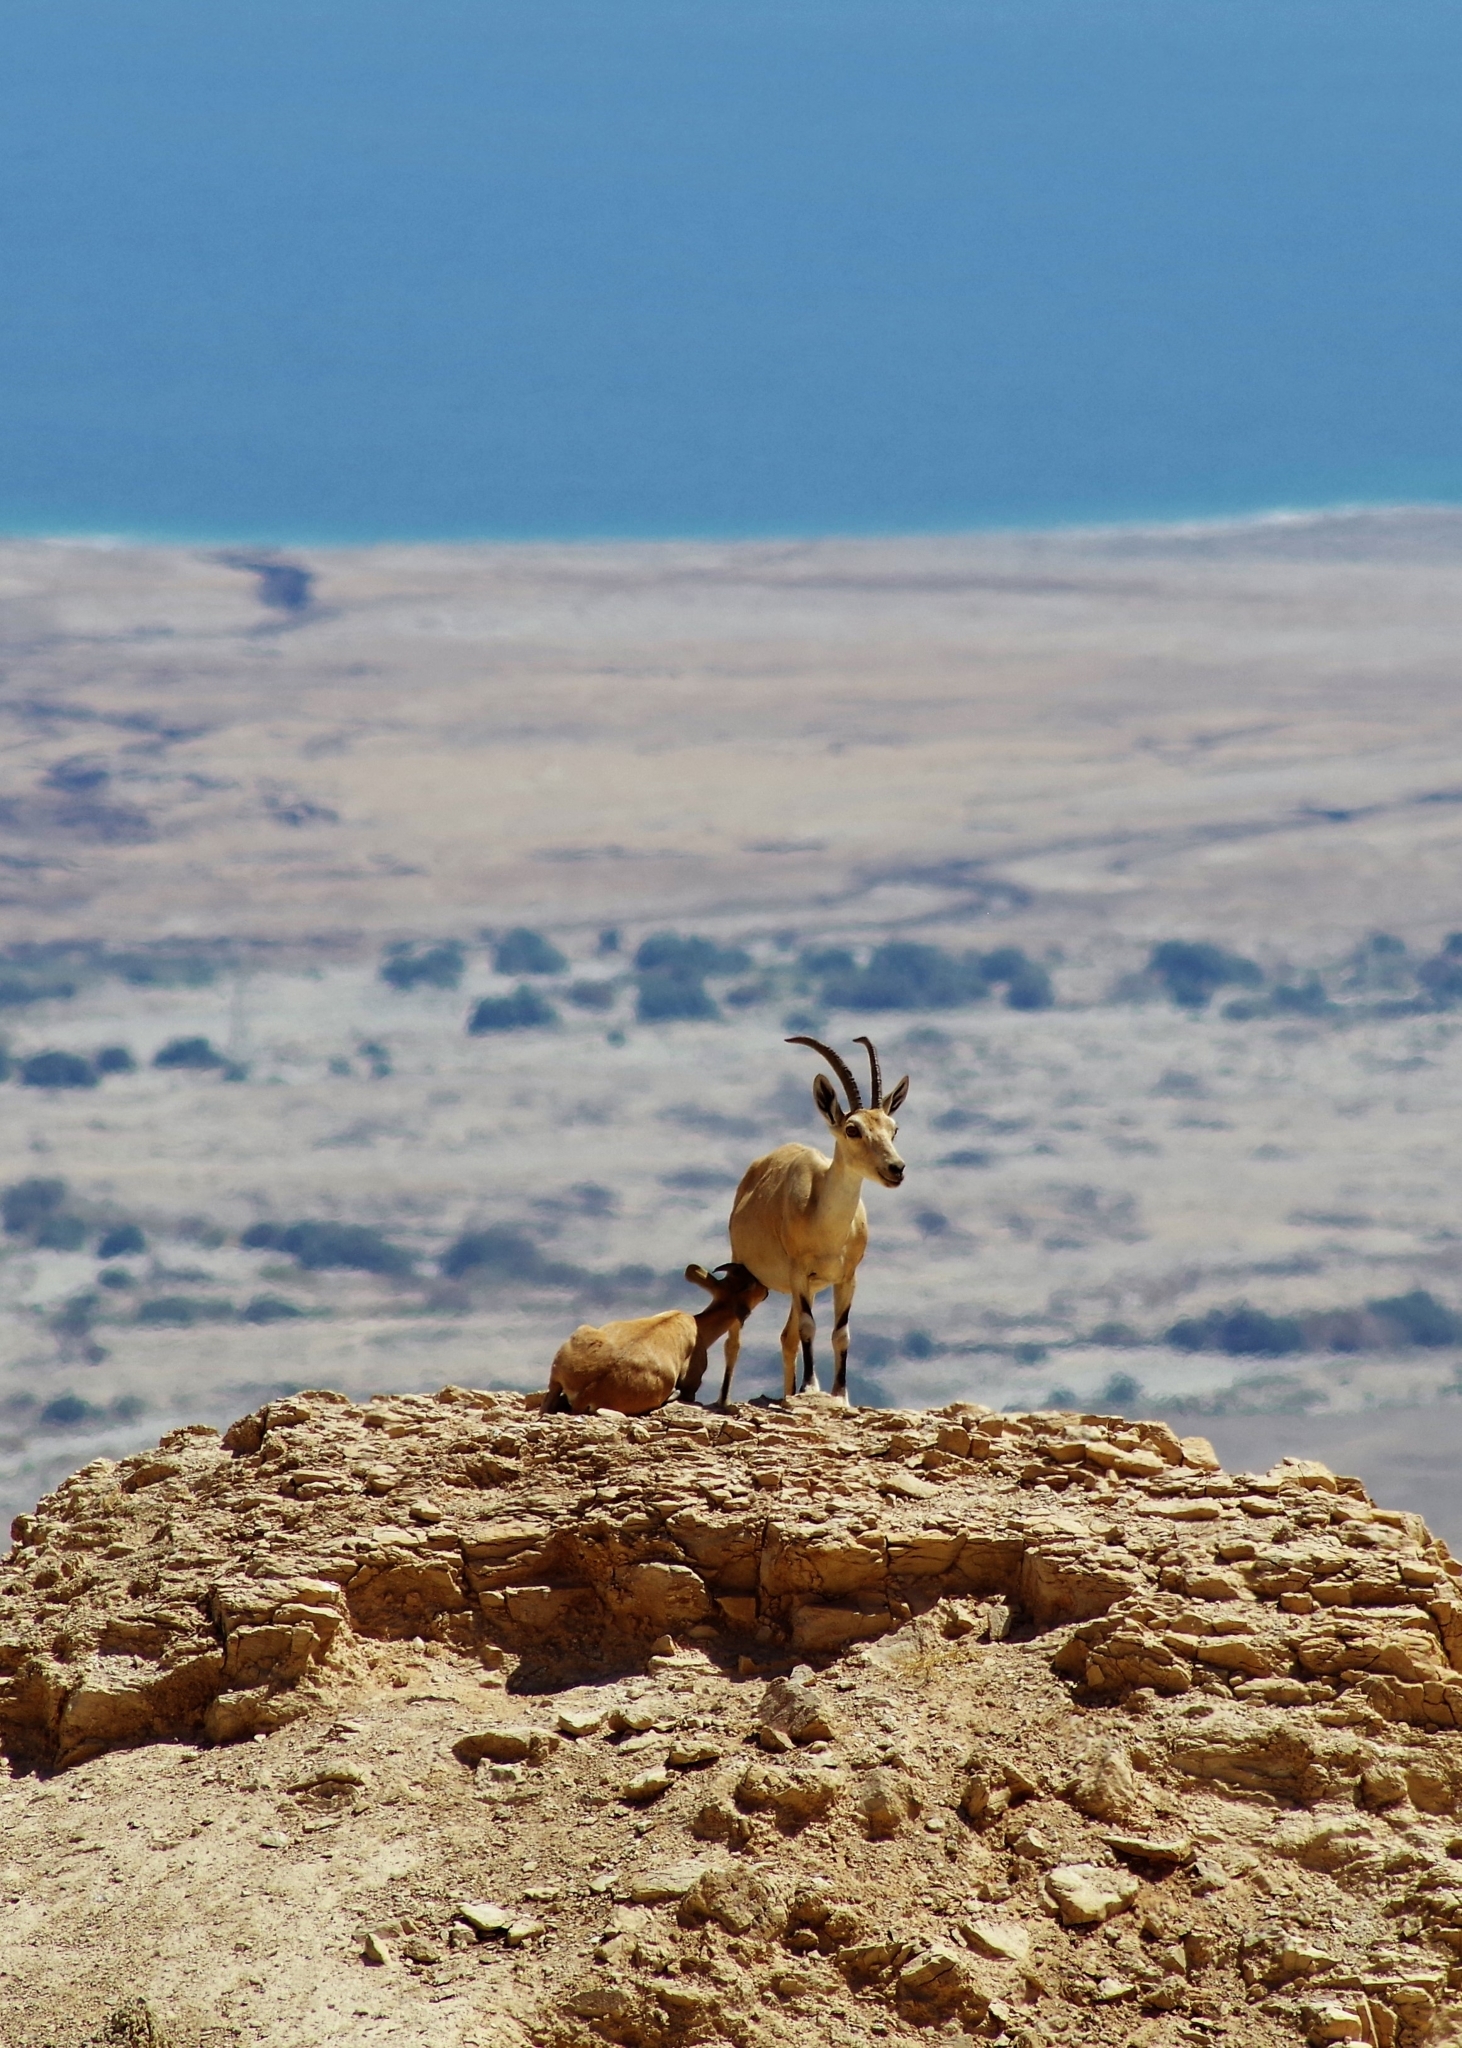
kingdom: Animalia
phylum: Chordata
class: Mammalia
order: Artiodactyla
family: Bovidae
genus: Capra
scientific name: Capra nubiana
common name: Nubian ibex
